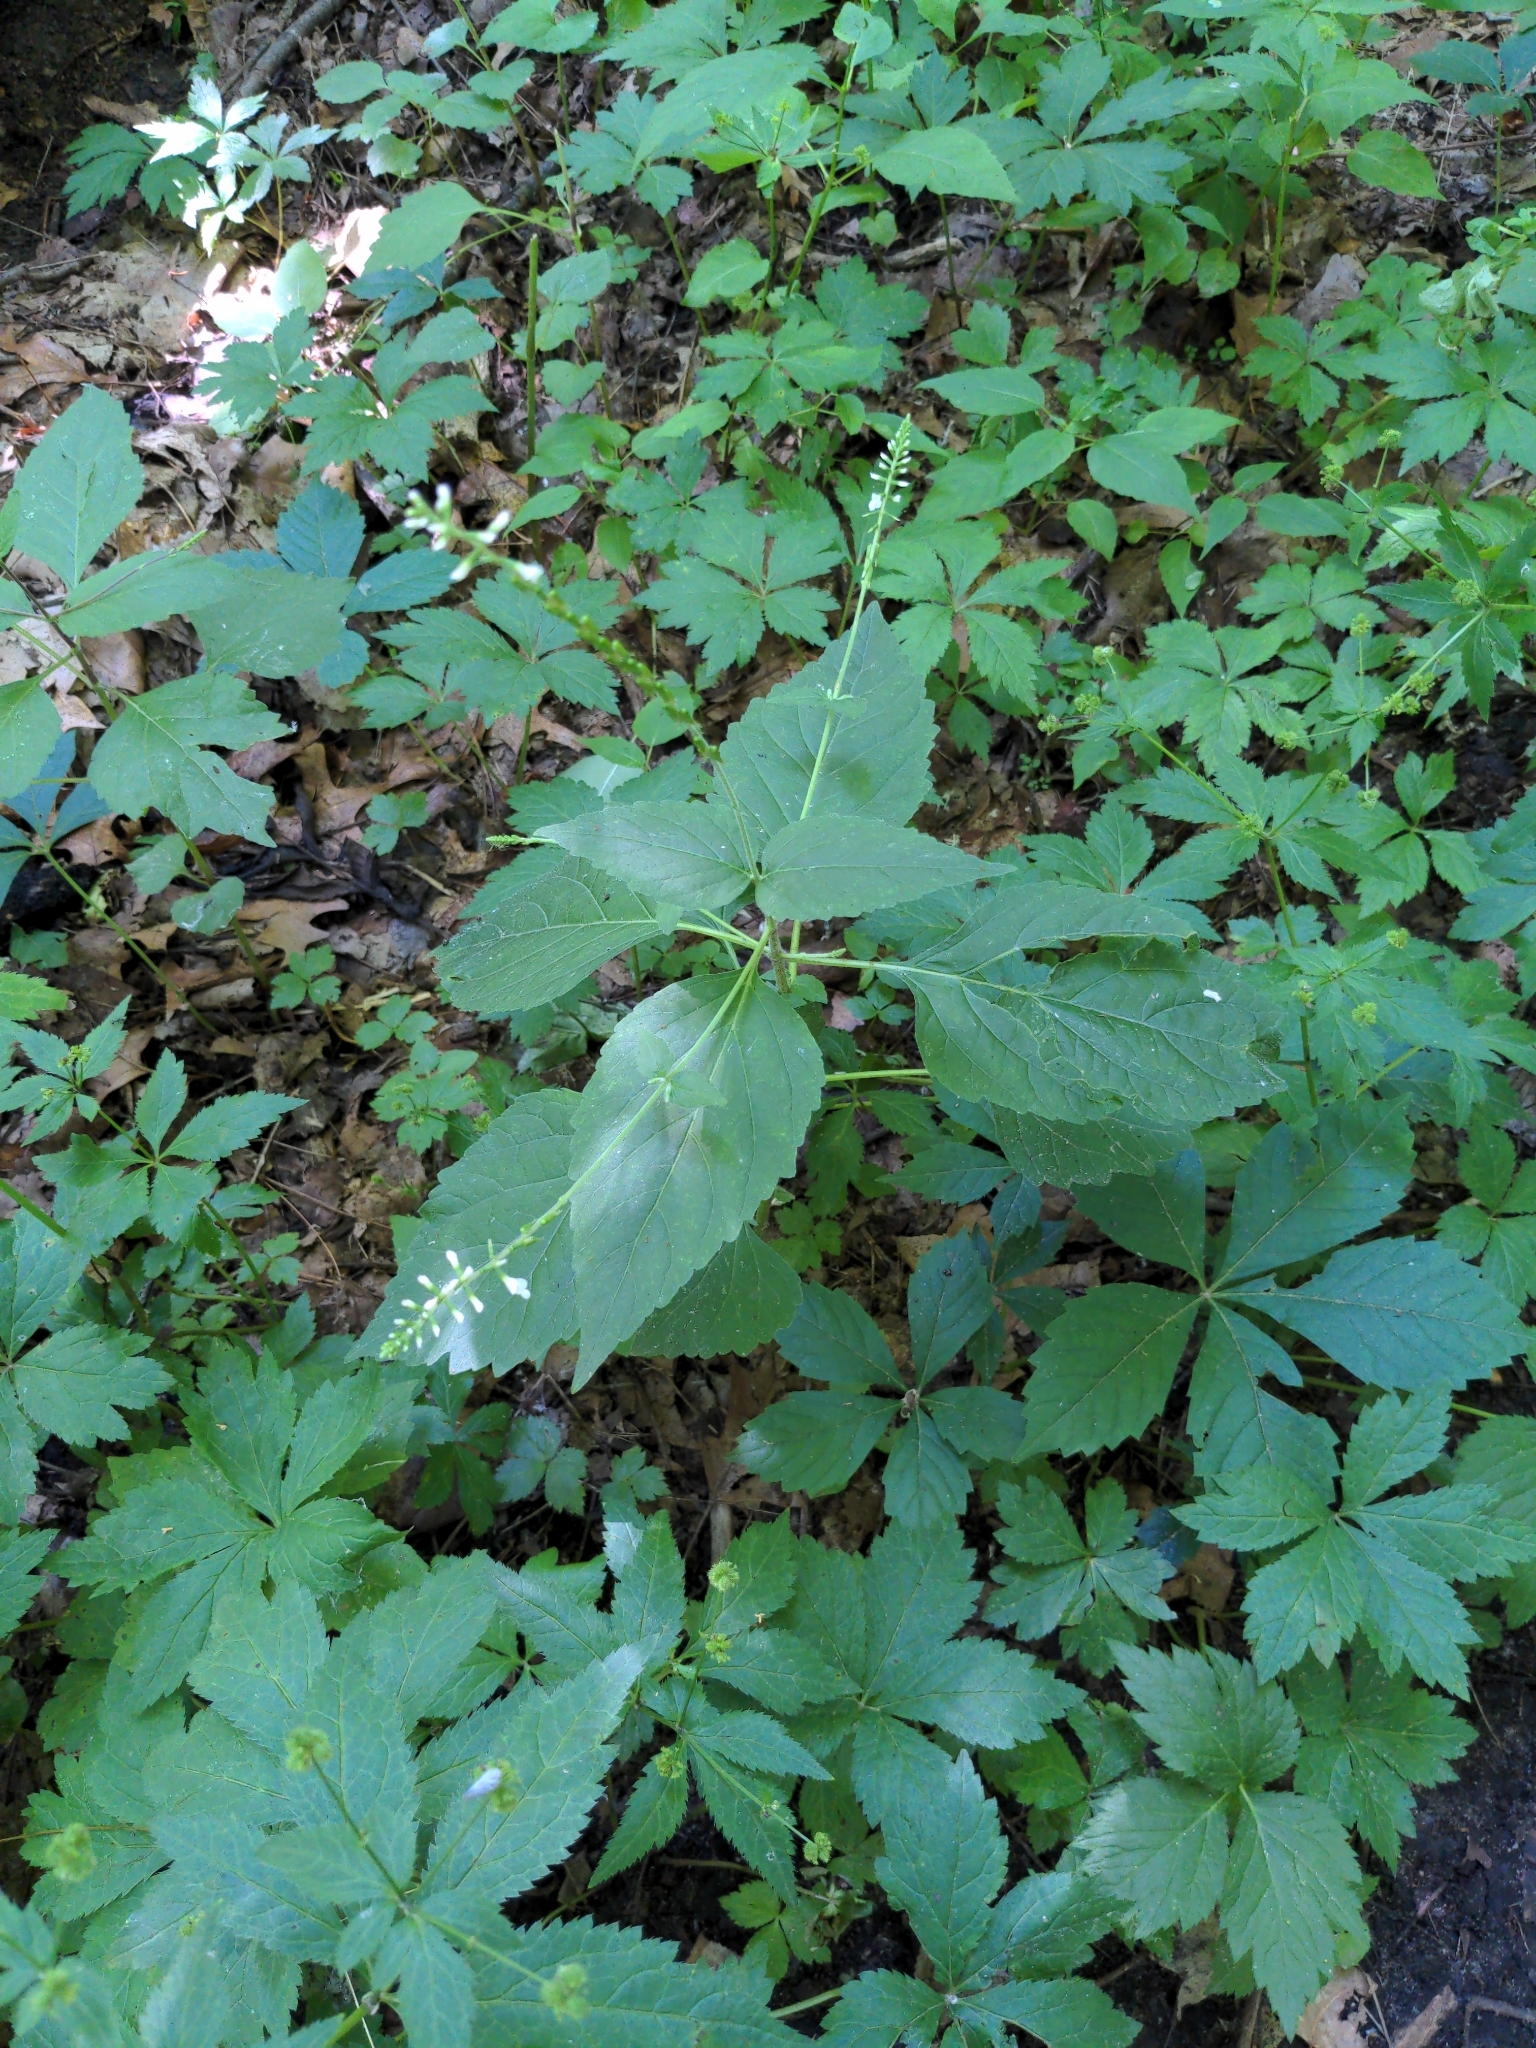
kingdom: Plantae
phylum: Tracheophyta
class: Magnoliopsida
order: Lamiales
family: Phrymaceae
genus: Phryma
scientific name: Phryma leptostachya
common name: American lopseed
